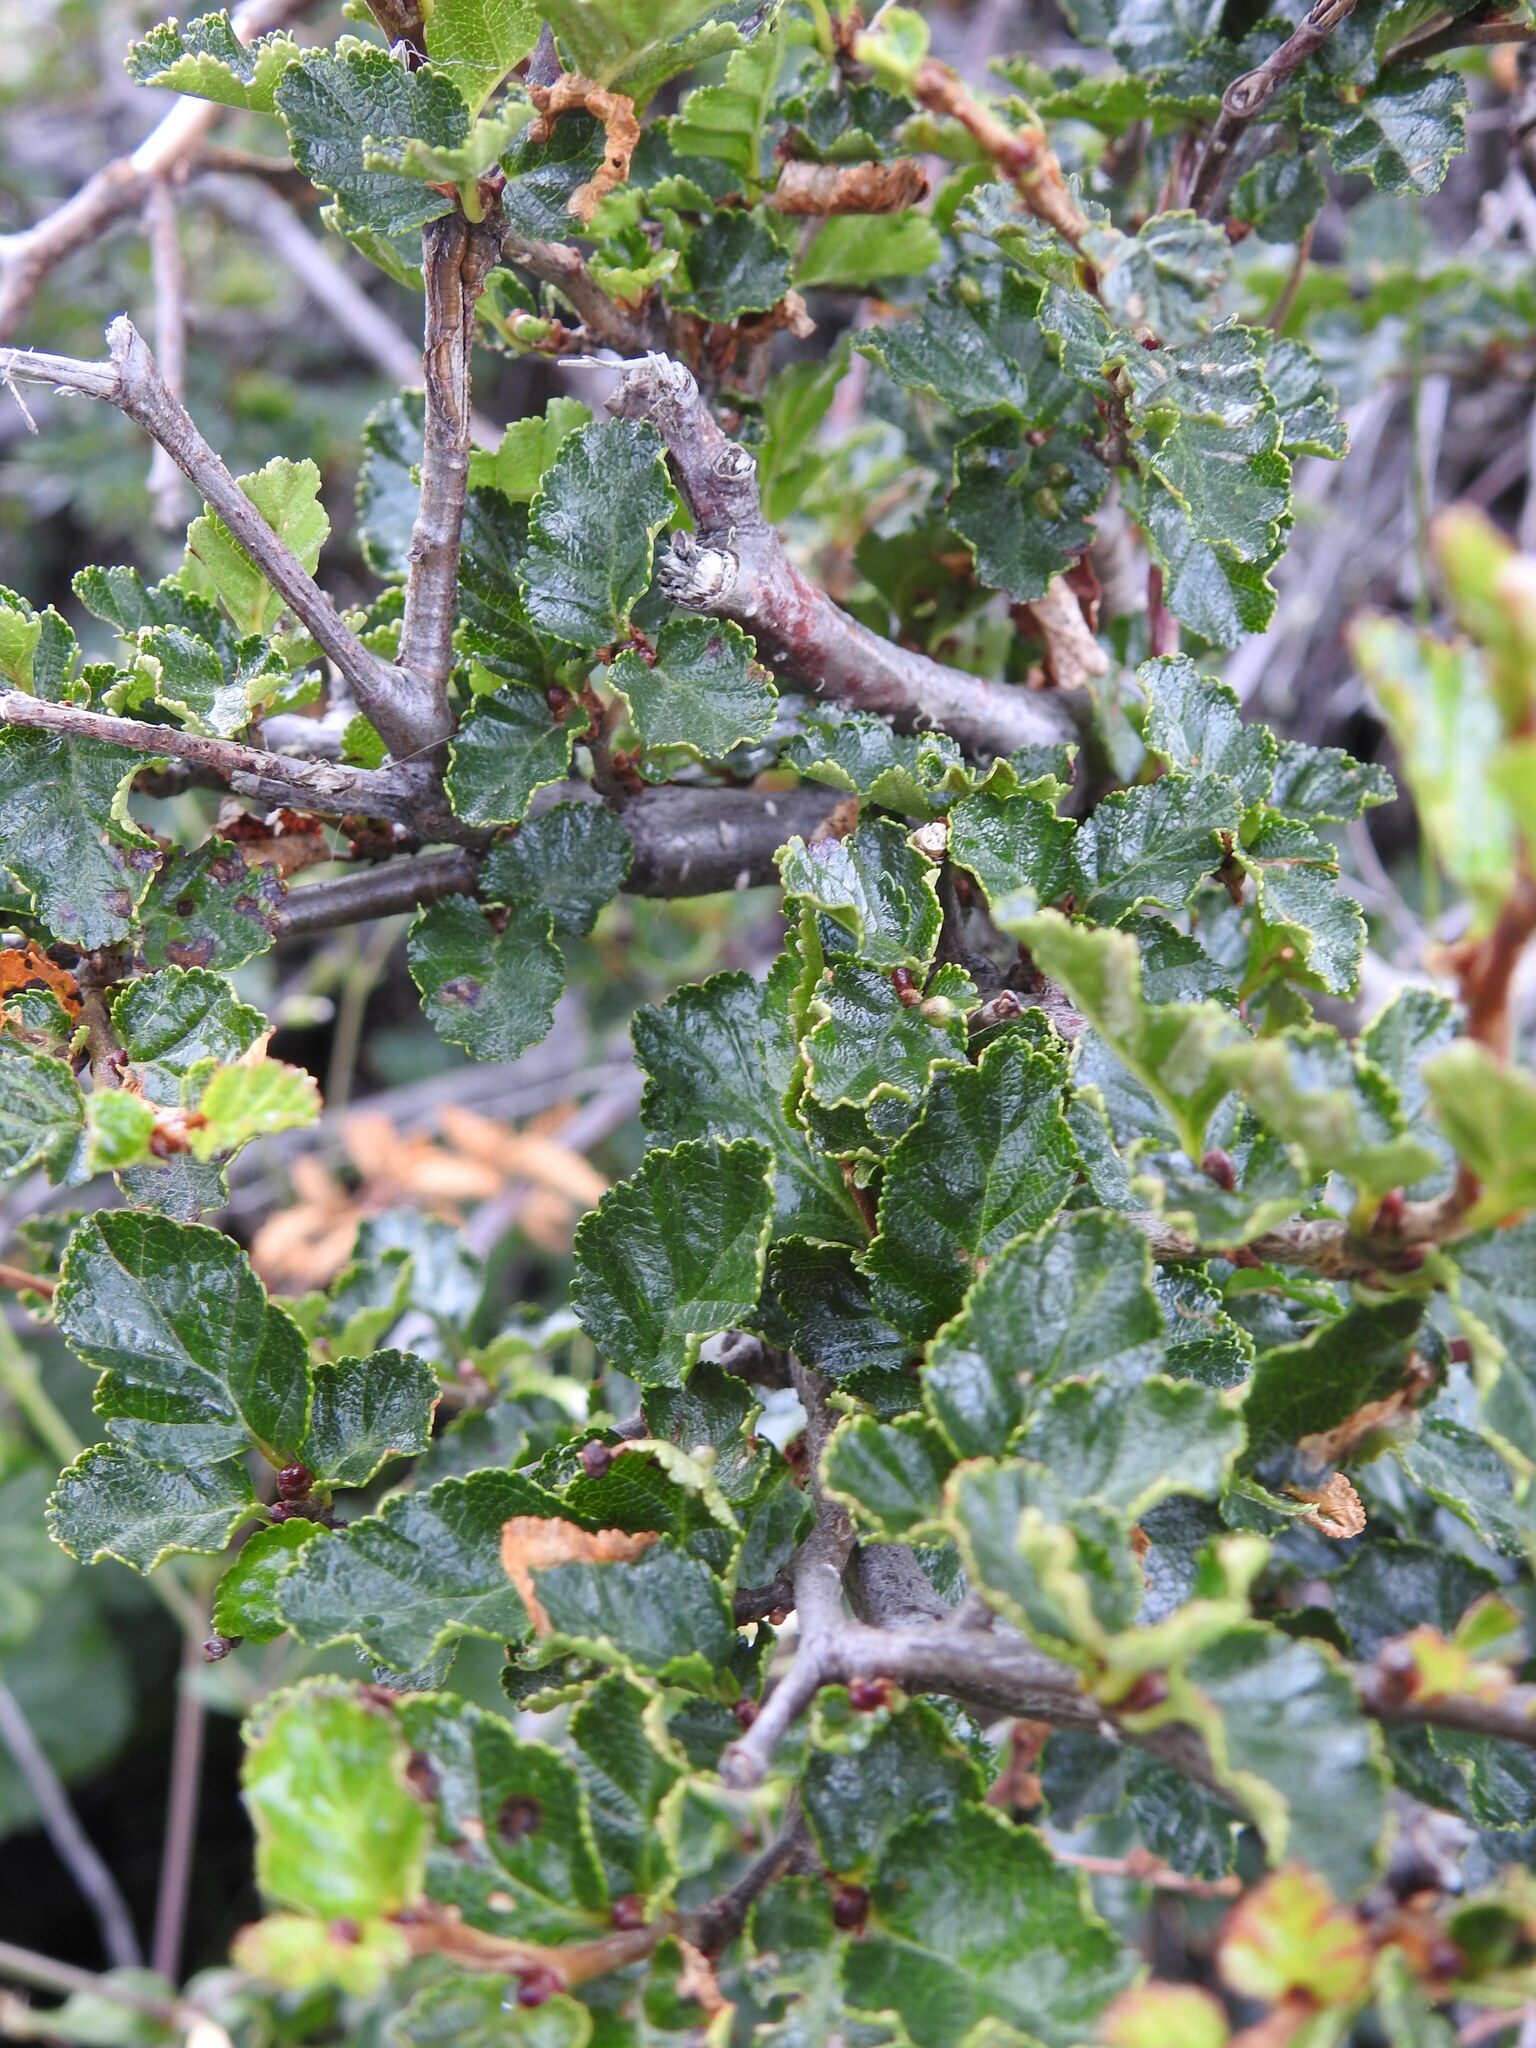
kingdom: Plantae
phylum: Tracheophyta
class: Magnoliopsida
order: Fagales
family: Nothofagaceae
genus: Nothofagus
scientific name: Nothofagus antarctica
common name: Antarctic beech
